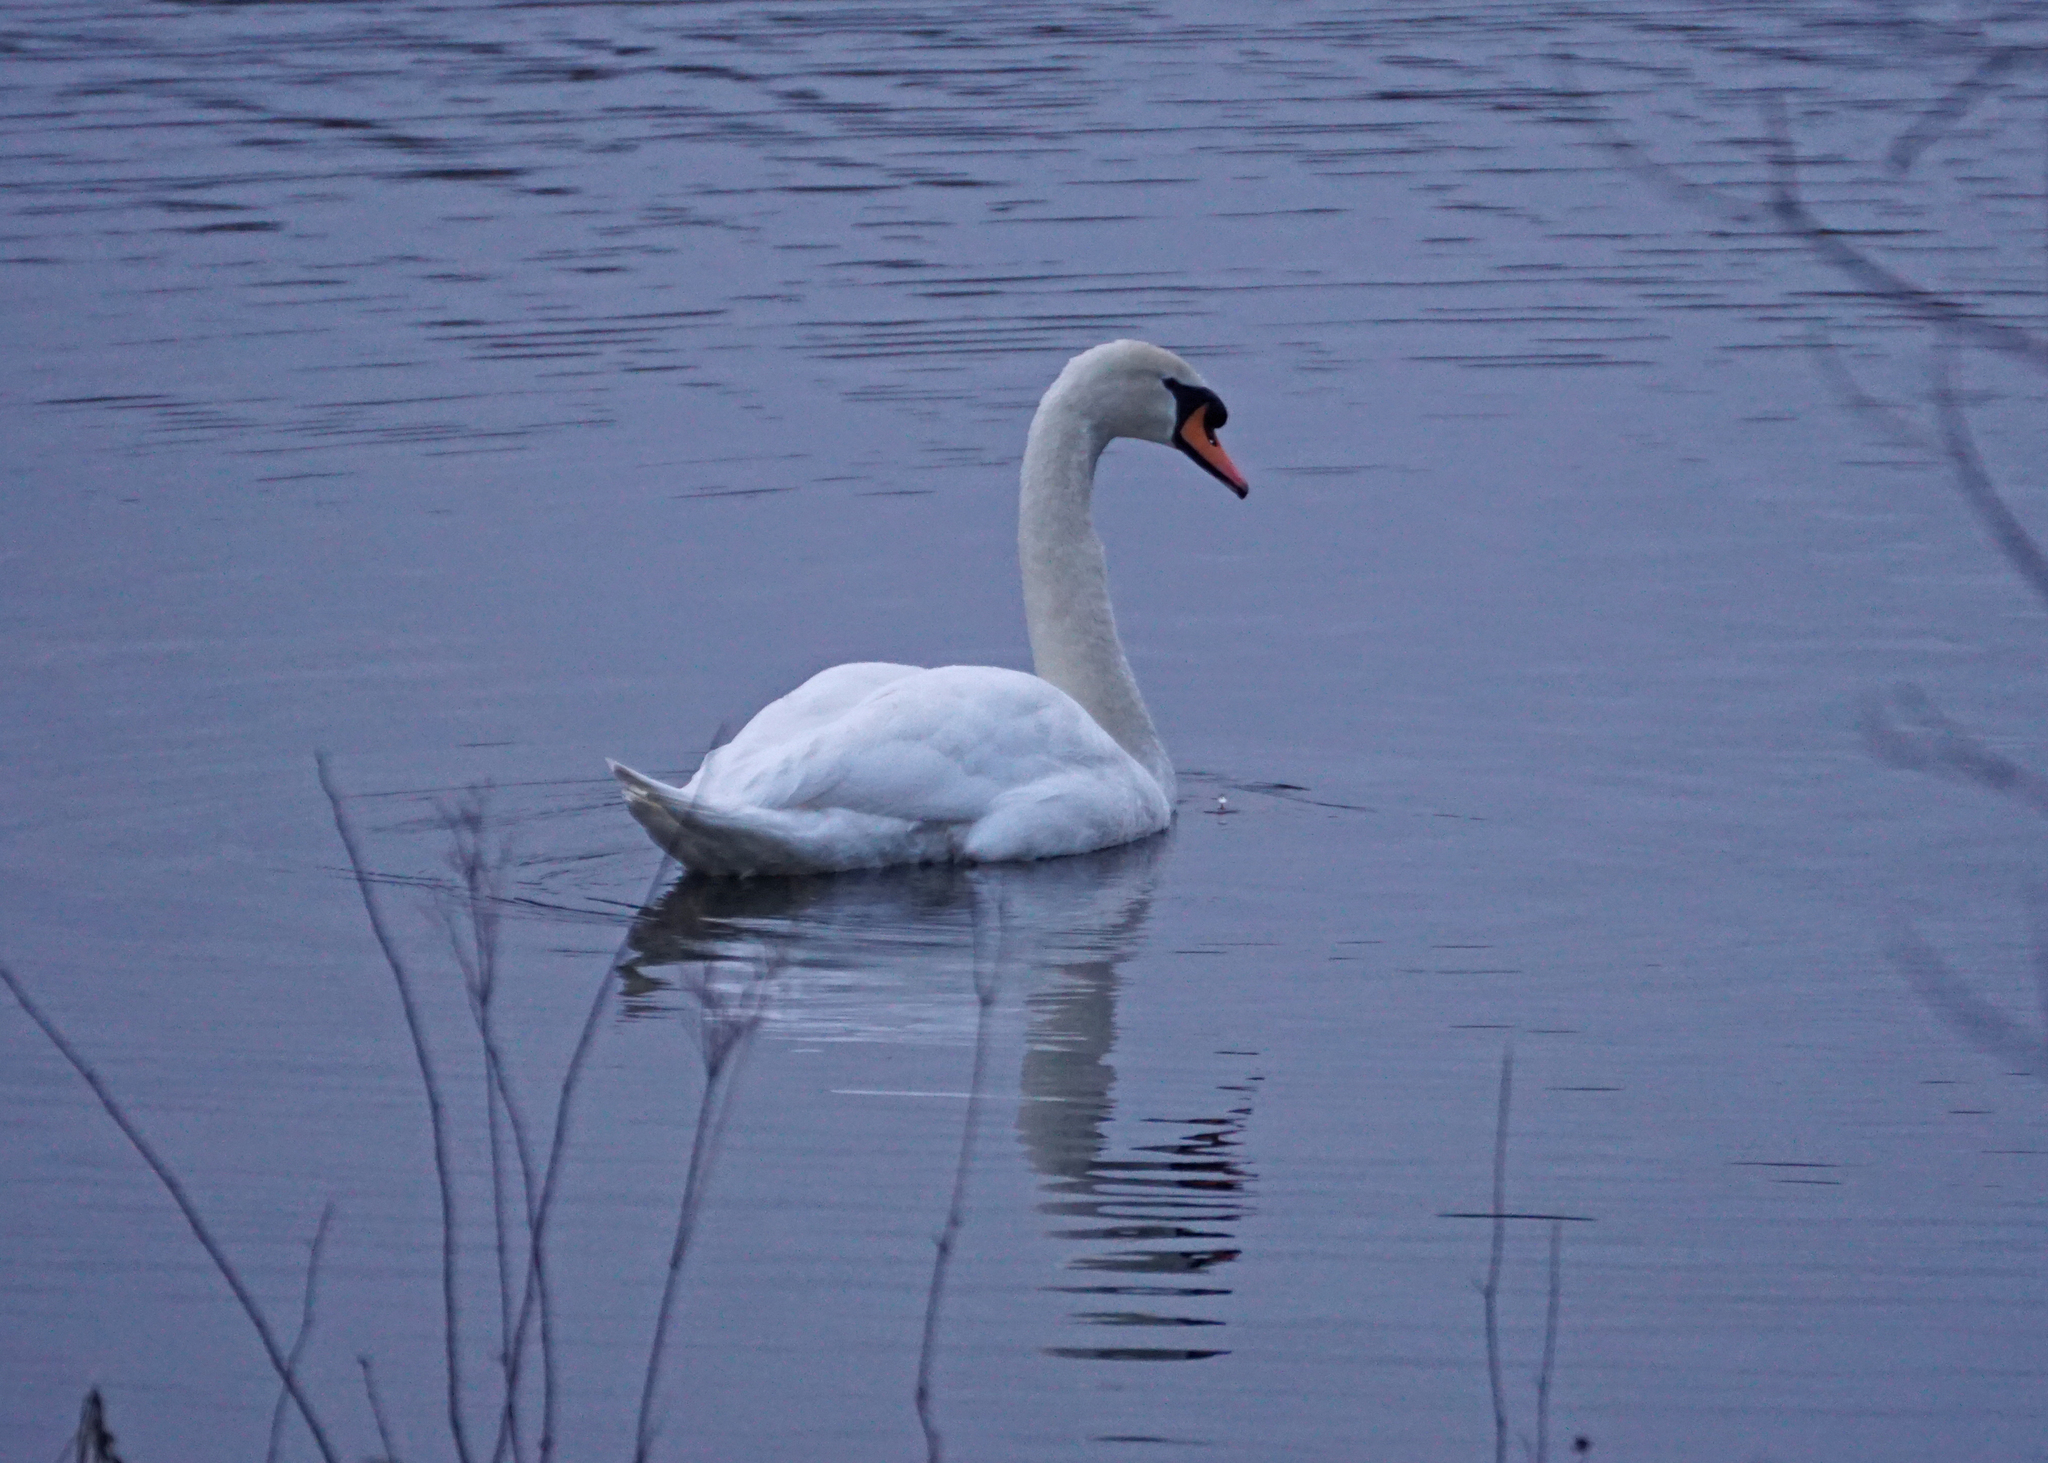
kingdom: Animalia
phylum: Chordata
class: Aves
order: Anseriformes
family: Anatidae
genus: Cygnus
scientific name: Cygnus olor
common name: Mute swan
